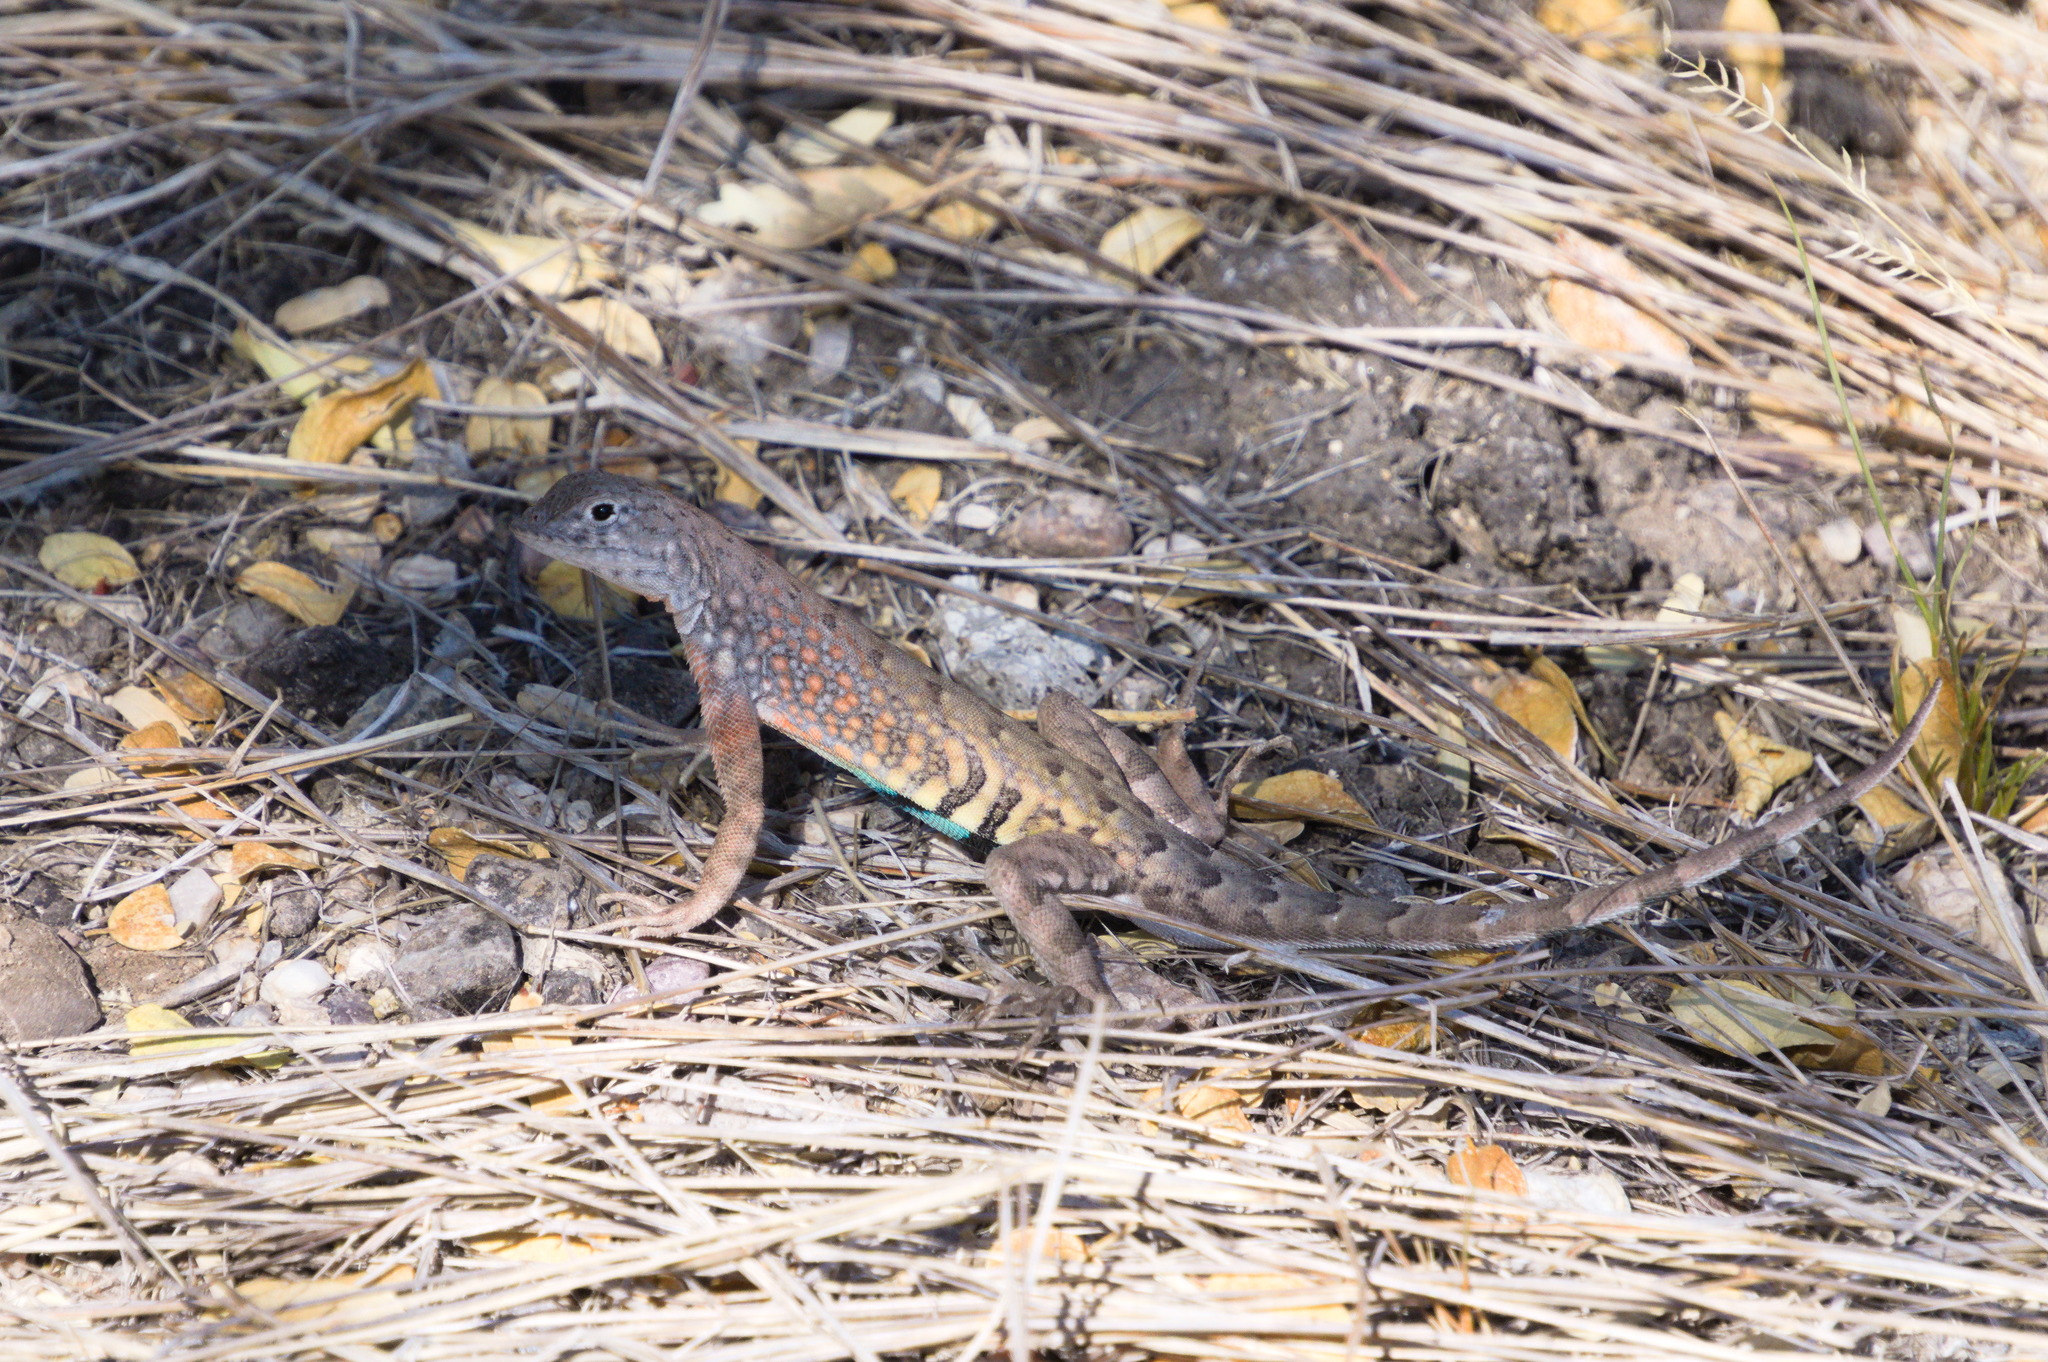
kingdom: Animalia
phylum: Chordata
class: Squamata
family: Phrynosomatidae
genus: Cophosaurus
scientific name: Cophosaurus texanus
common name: Greater earless lizard
